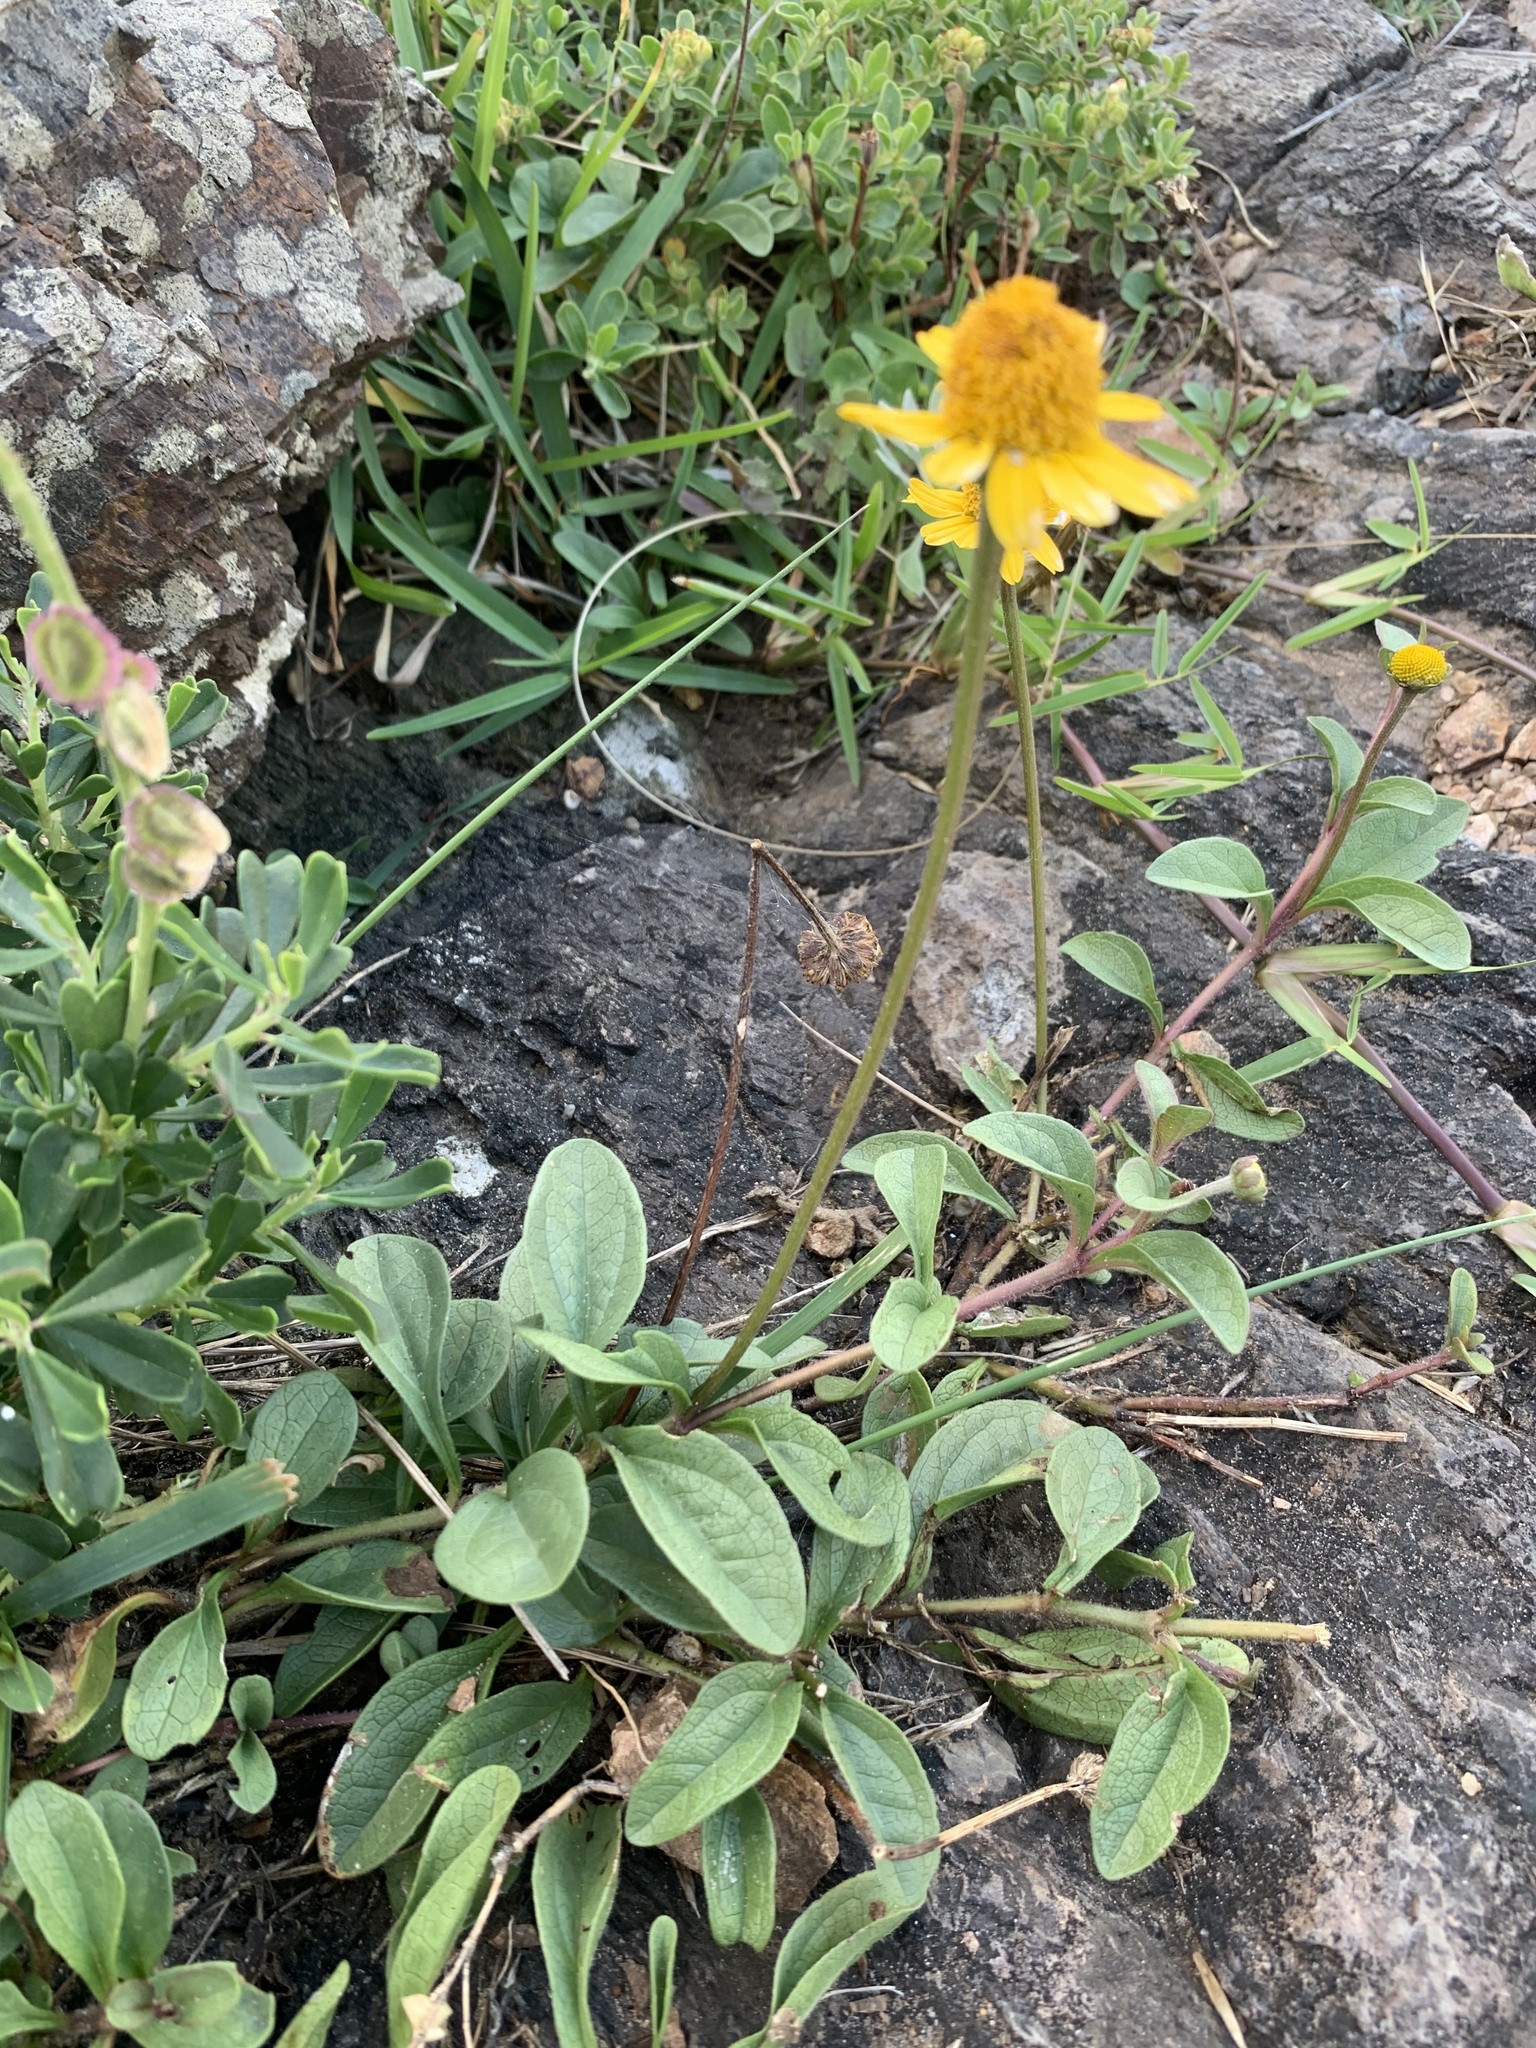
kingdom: Plantae
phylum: Tracheophyta
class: Magnoliopsida
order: Asterales
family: Asteraceae
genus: Acmella
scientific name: Acmella decumbens
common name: Creeping spotflower
